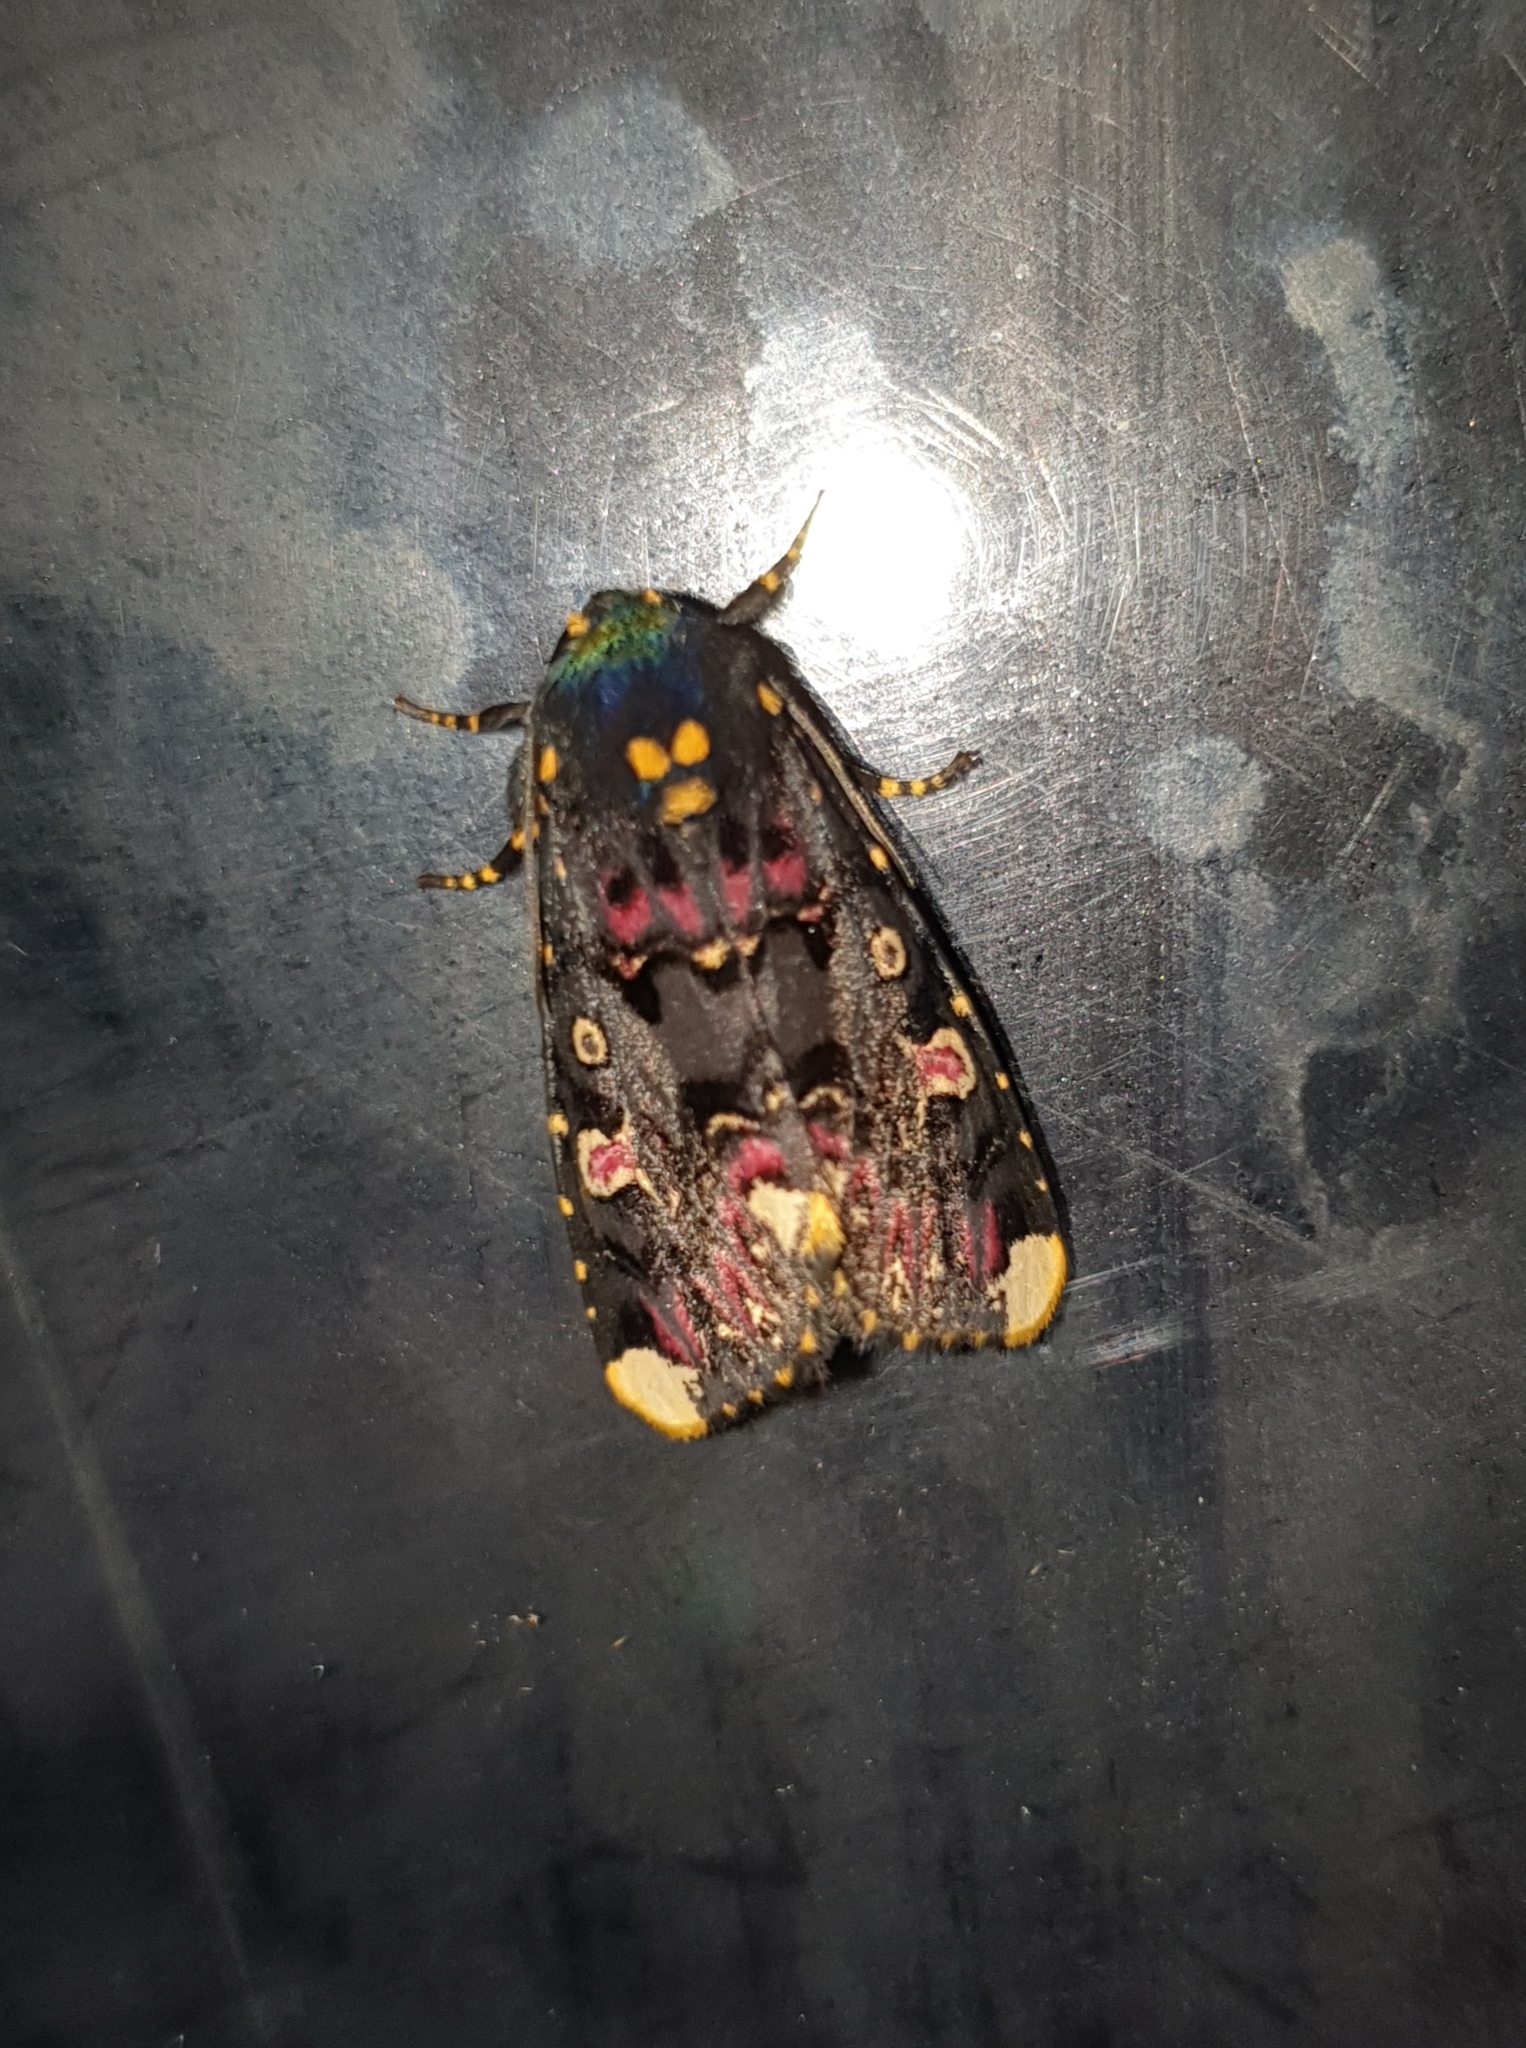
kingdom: Animalia
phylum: Arthropoda
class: Insecta
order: Lepidoptera
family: Noctuidae
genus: Polytela
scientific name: Polytela gloriosae
